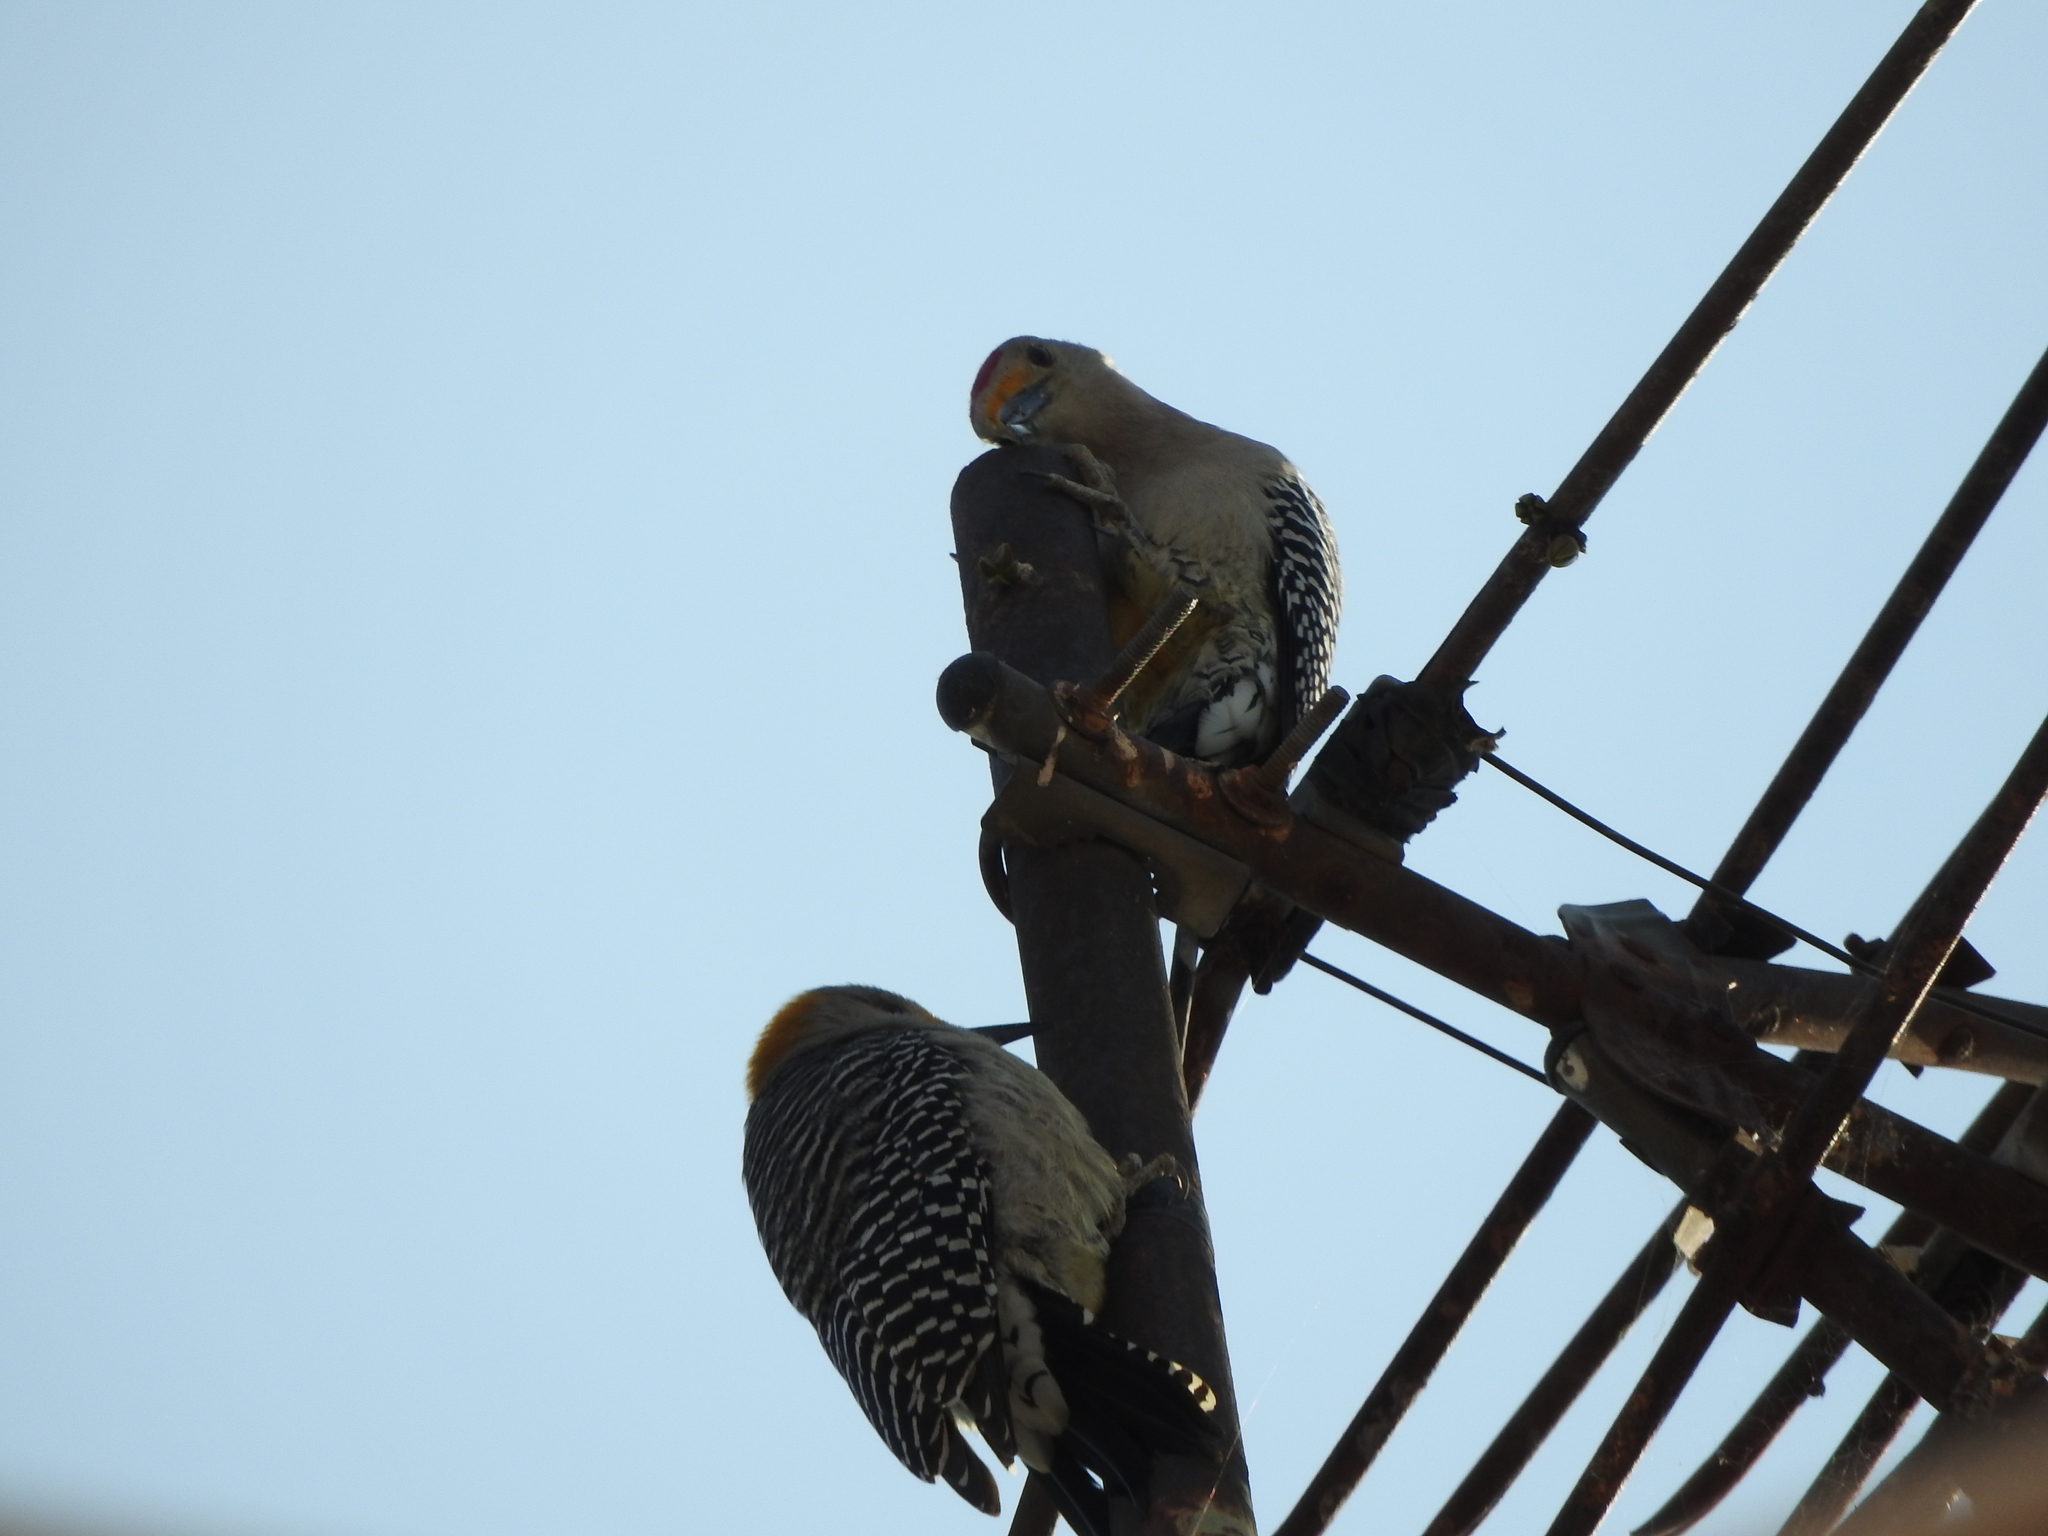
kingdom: Animalia
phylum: Chordata
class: Aves
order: Piciformes
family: Picidae
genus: Melanerpes
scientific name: Melanerpes aurifrons
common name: Golden-fronted woodpecker
